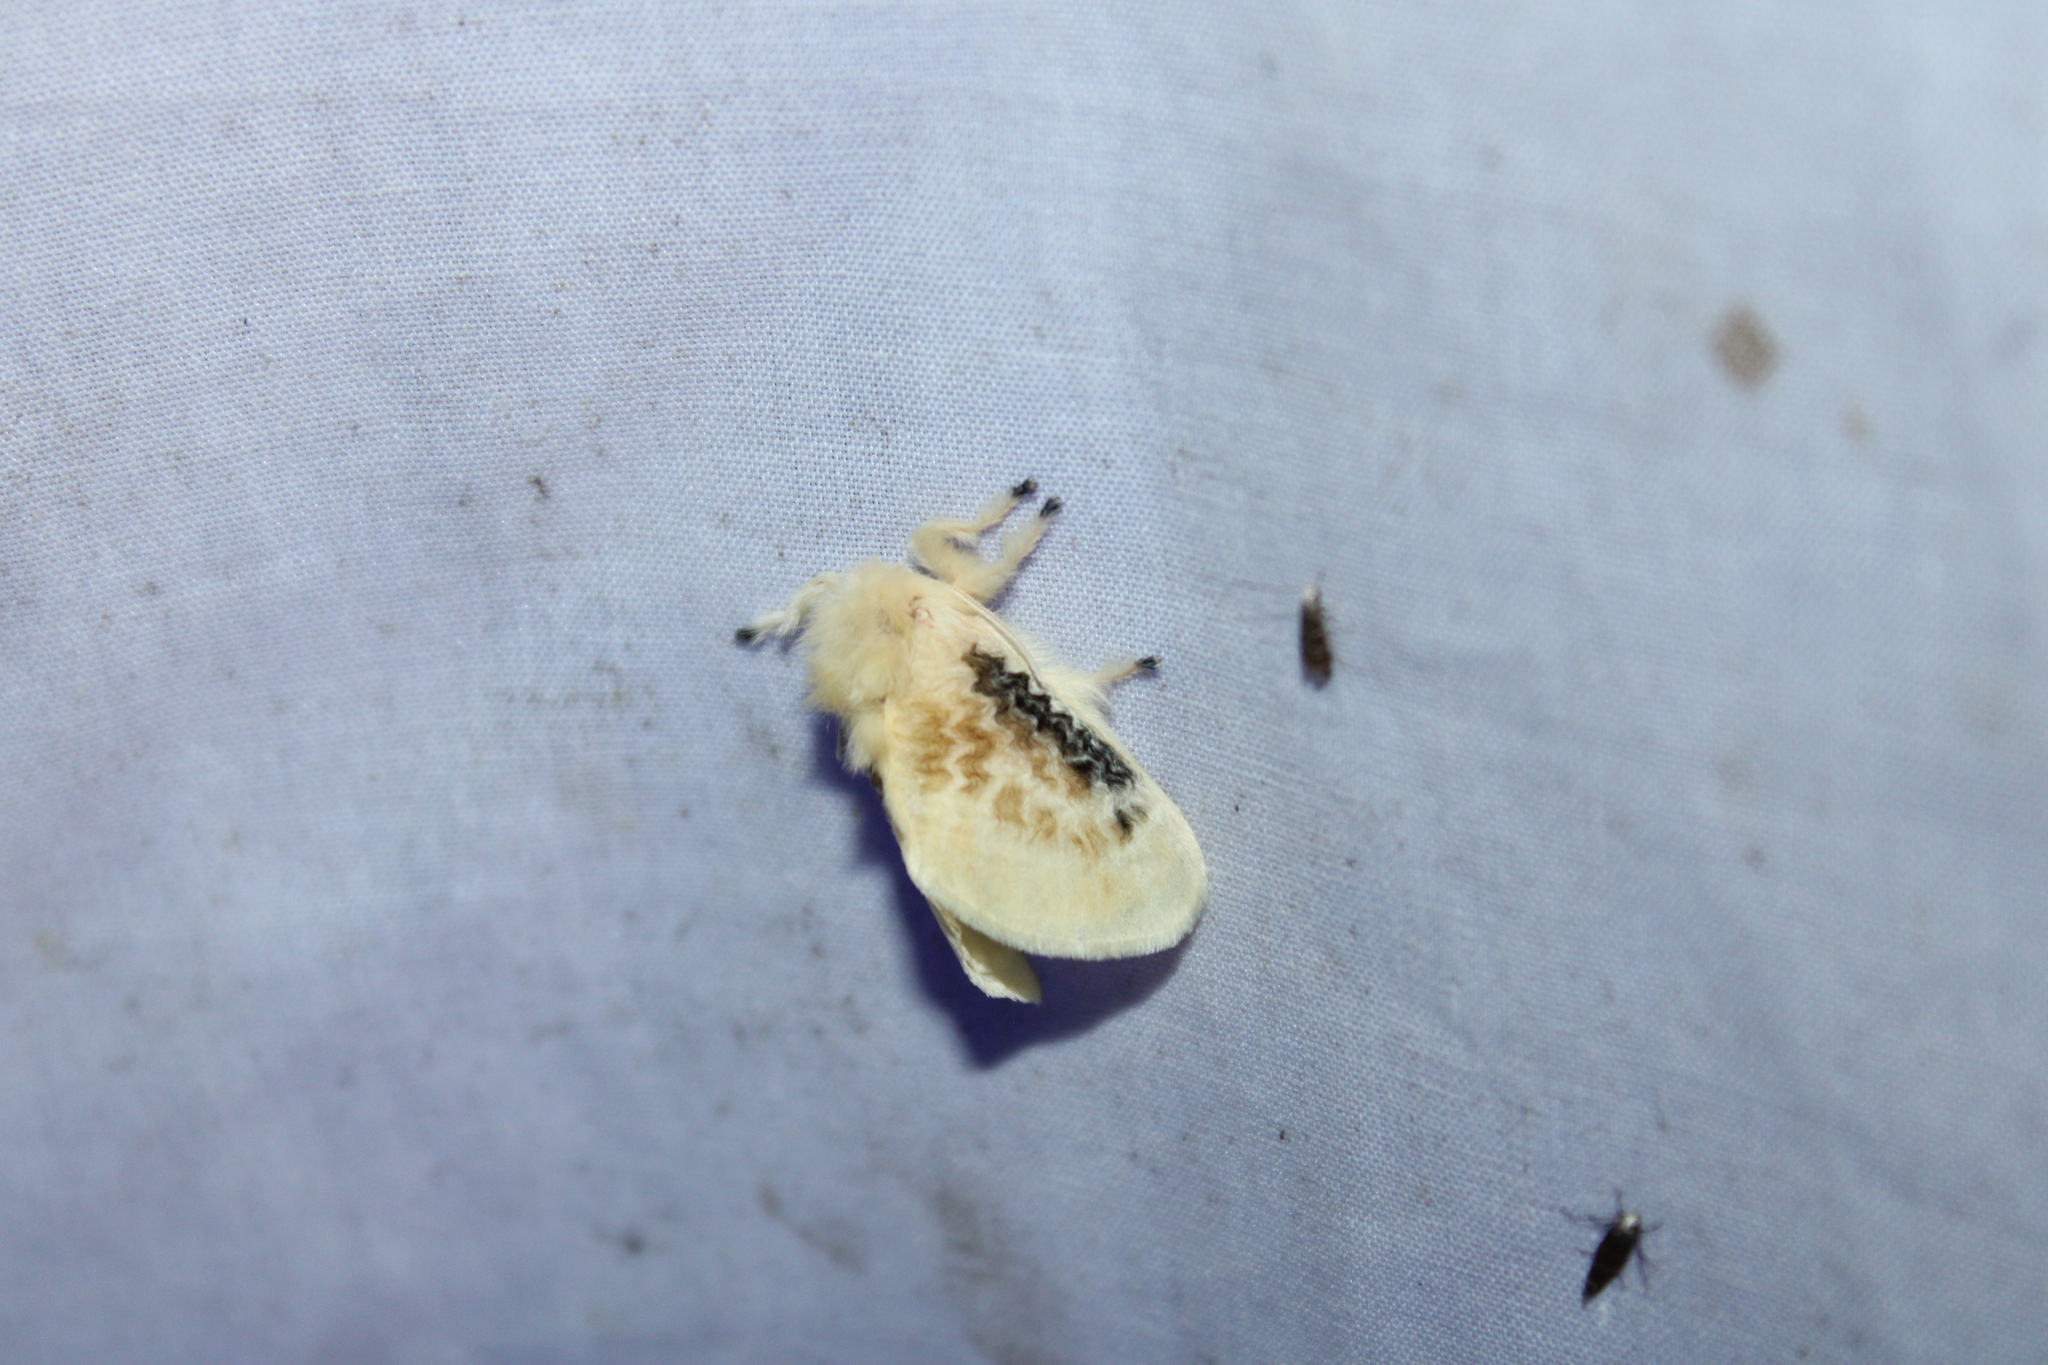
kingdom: Animalia
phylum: Arthropoda
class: Insecta
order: Lepidoptera
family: Megalopygidae
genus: Megalopyge
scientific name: Megalopyge crispata
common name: Black-waved flannel moth
